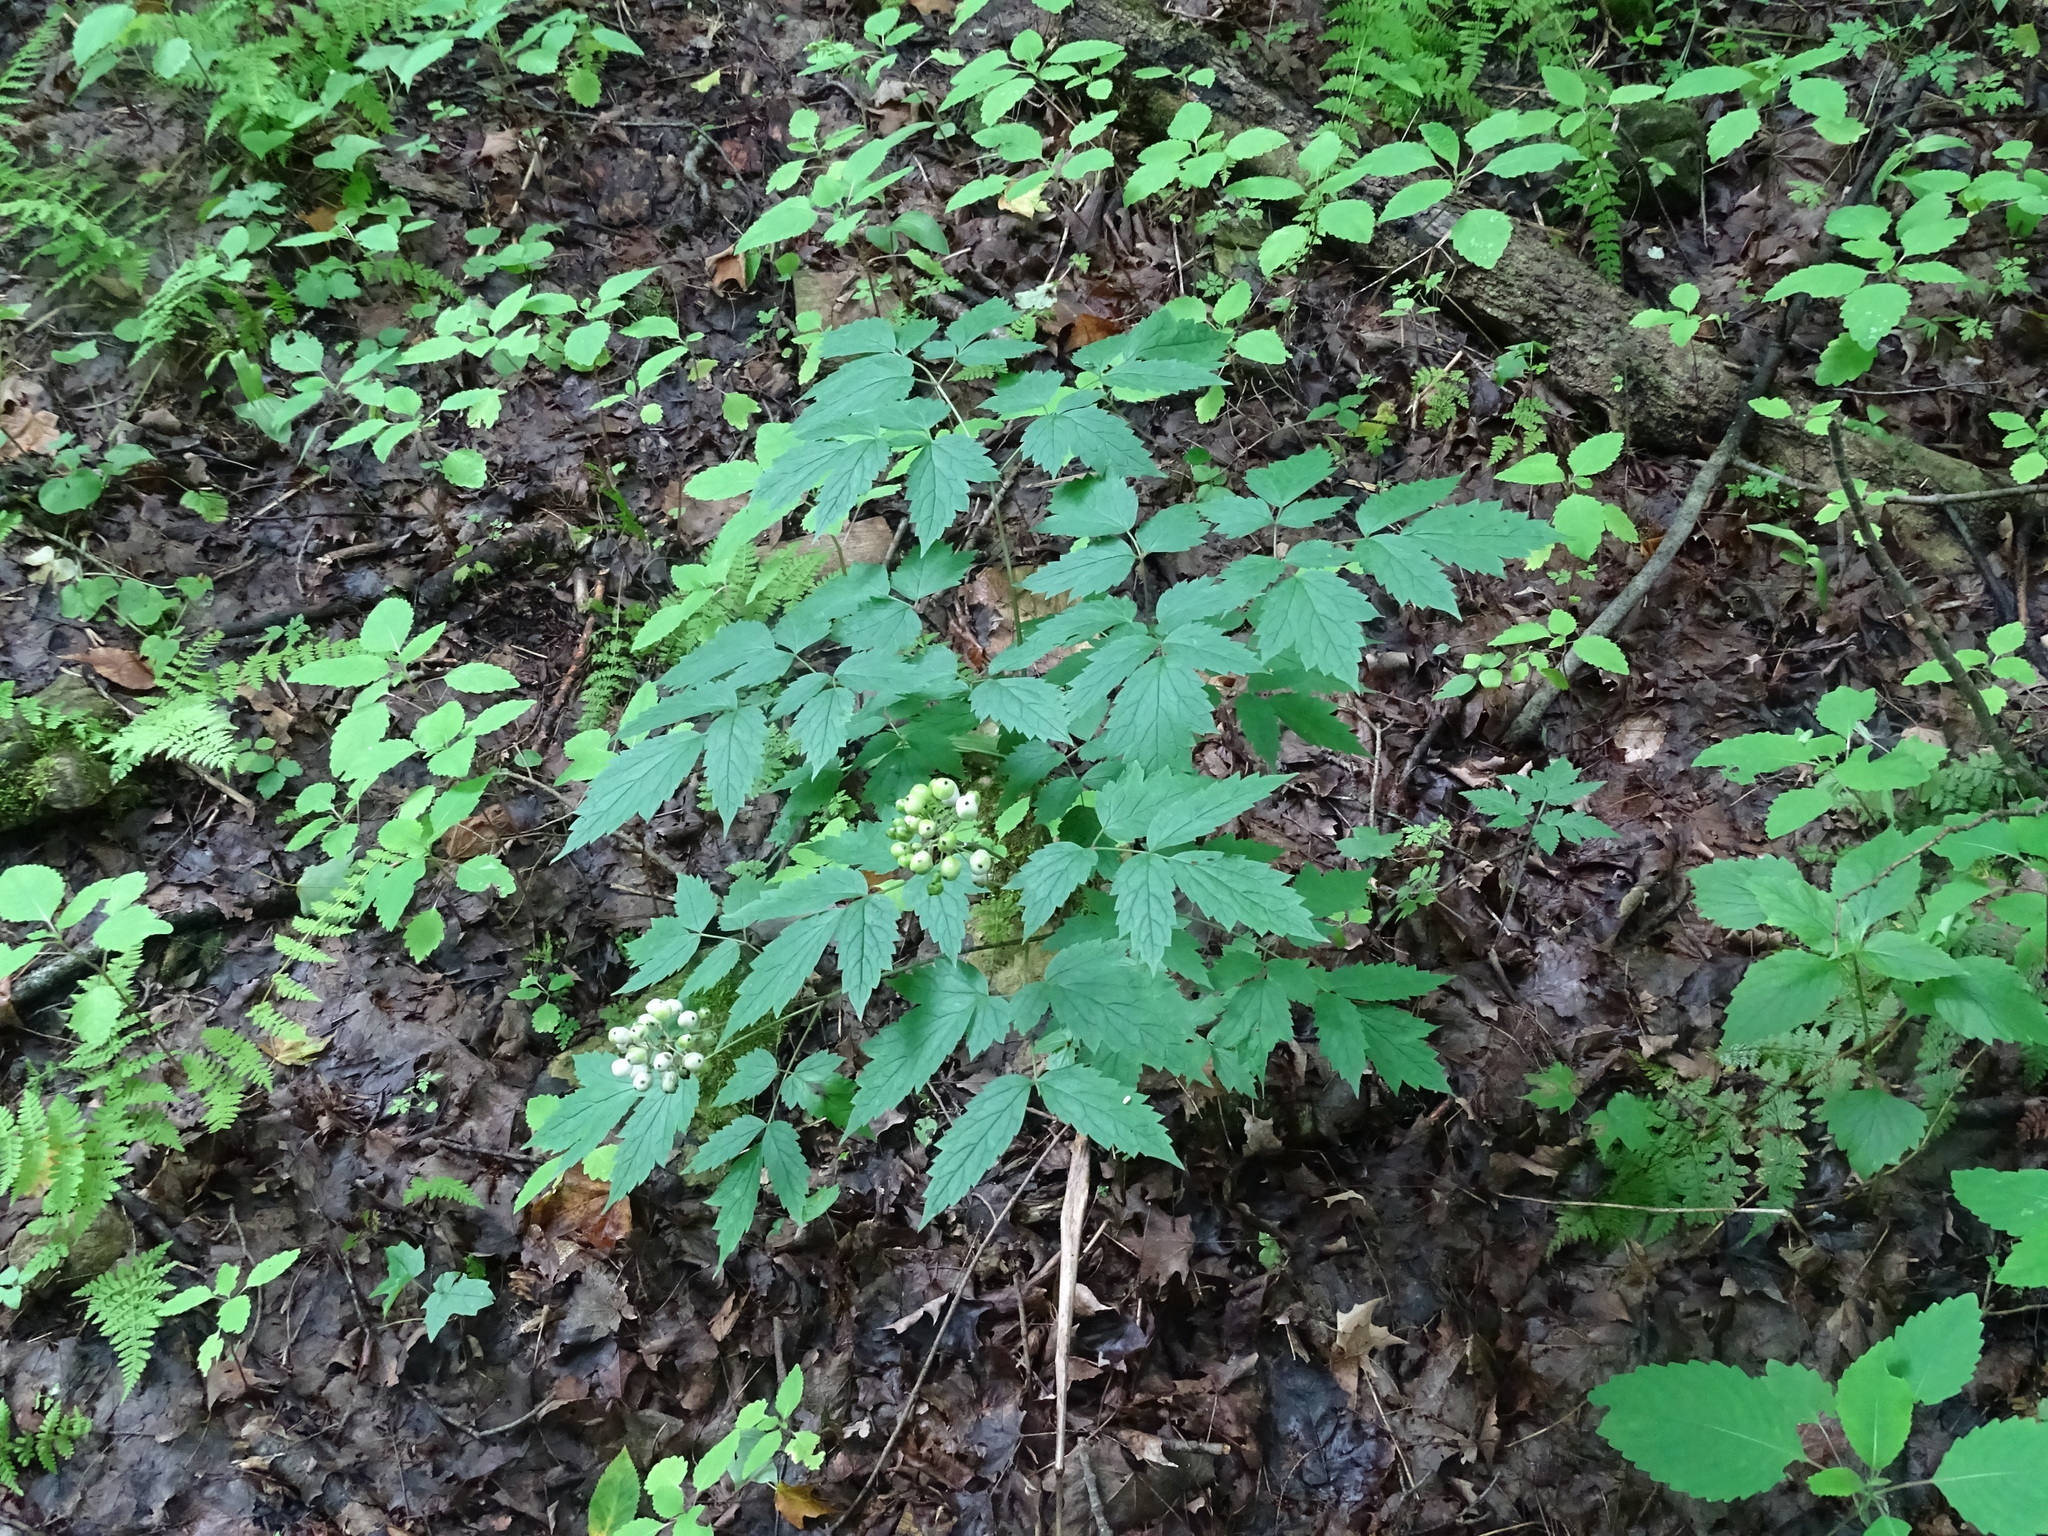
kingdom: Plantae
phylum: Tracheophyta
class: Magnoliopsida
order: Ranunculales
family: Ranunculaceae
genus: Actaea
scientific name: Actaea rubra
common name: Red baneberry
